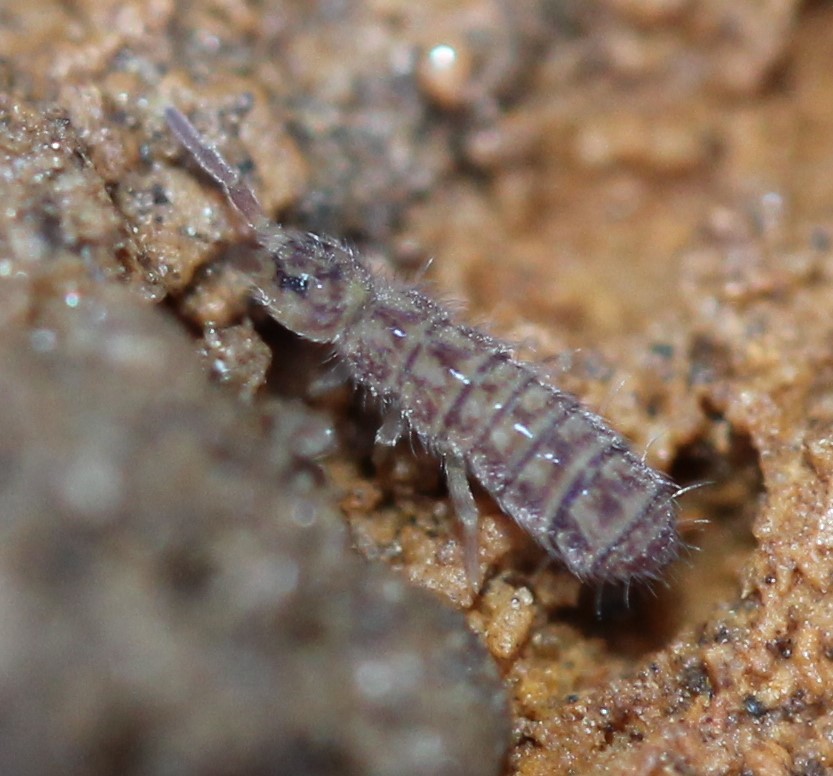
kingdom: Animalia
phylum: Arthropoda
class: Collembola
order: Entomobryomorpha
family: Isotomidae
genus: Isotoma
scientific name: Isotoma delta
